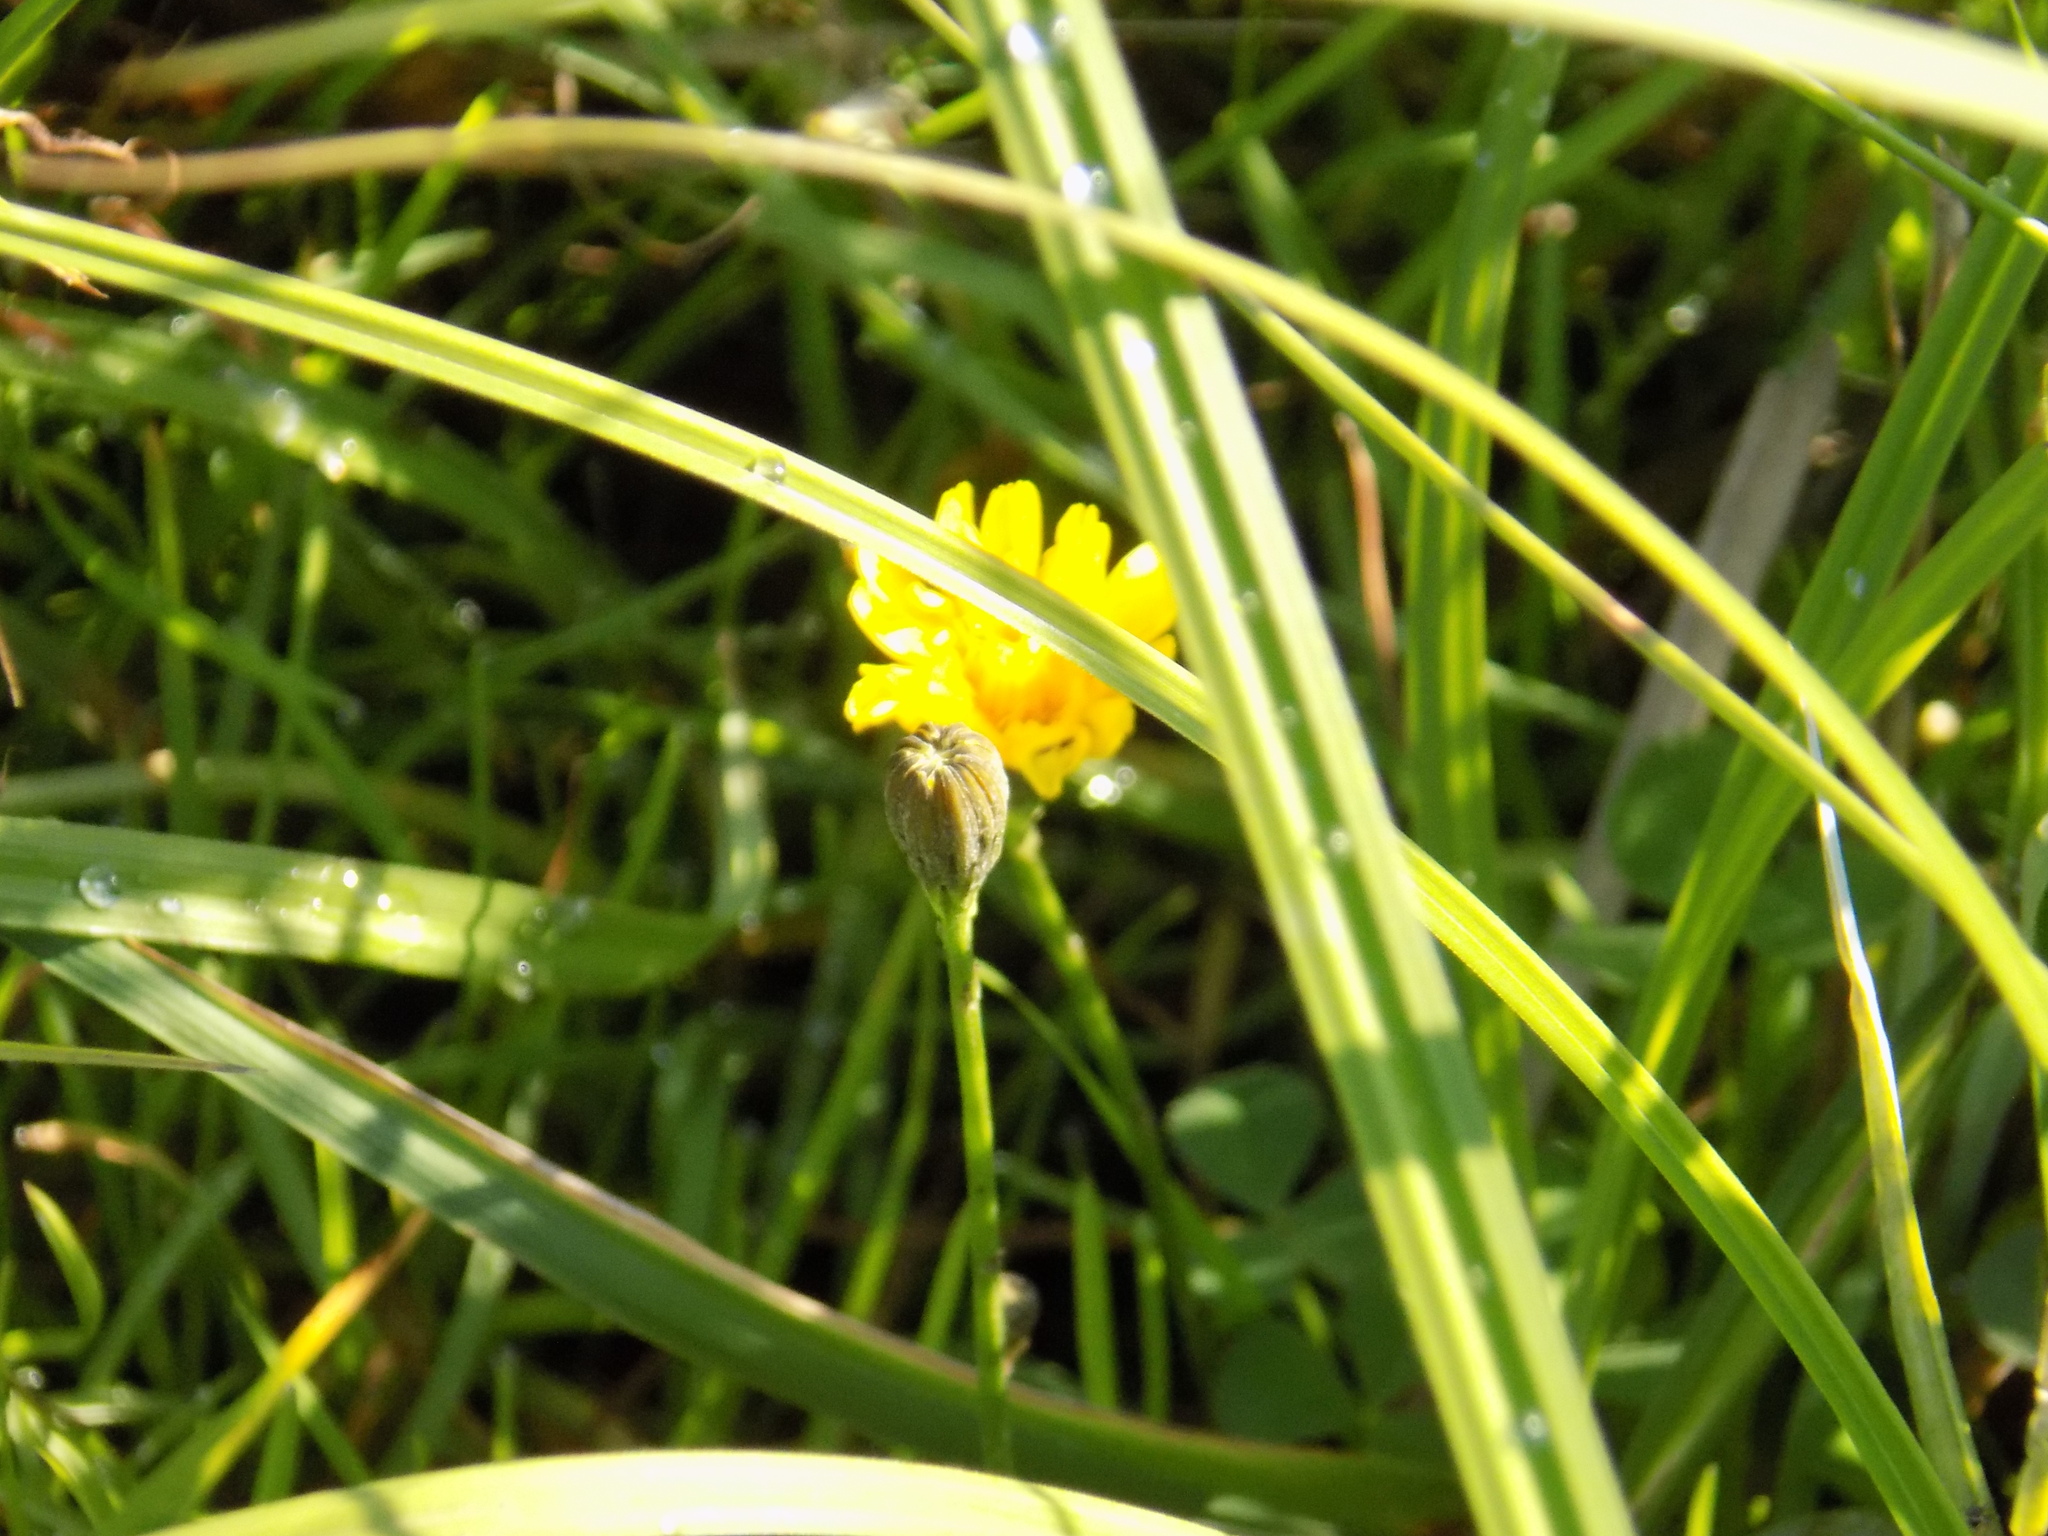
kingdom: Plantae
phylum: Tracheophyta
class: Magnoliopsida
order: Asterales
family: Asteraceae
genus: Scorzoneroides
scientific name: Scorzoneroides autumnalis
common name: Autumn hawkbit
